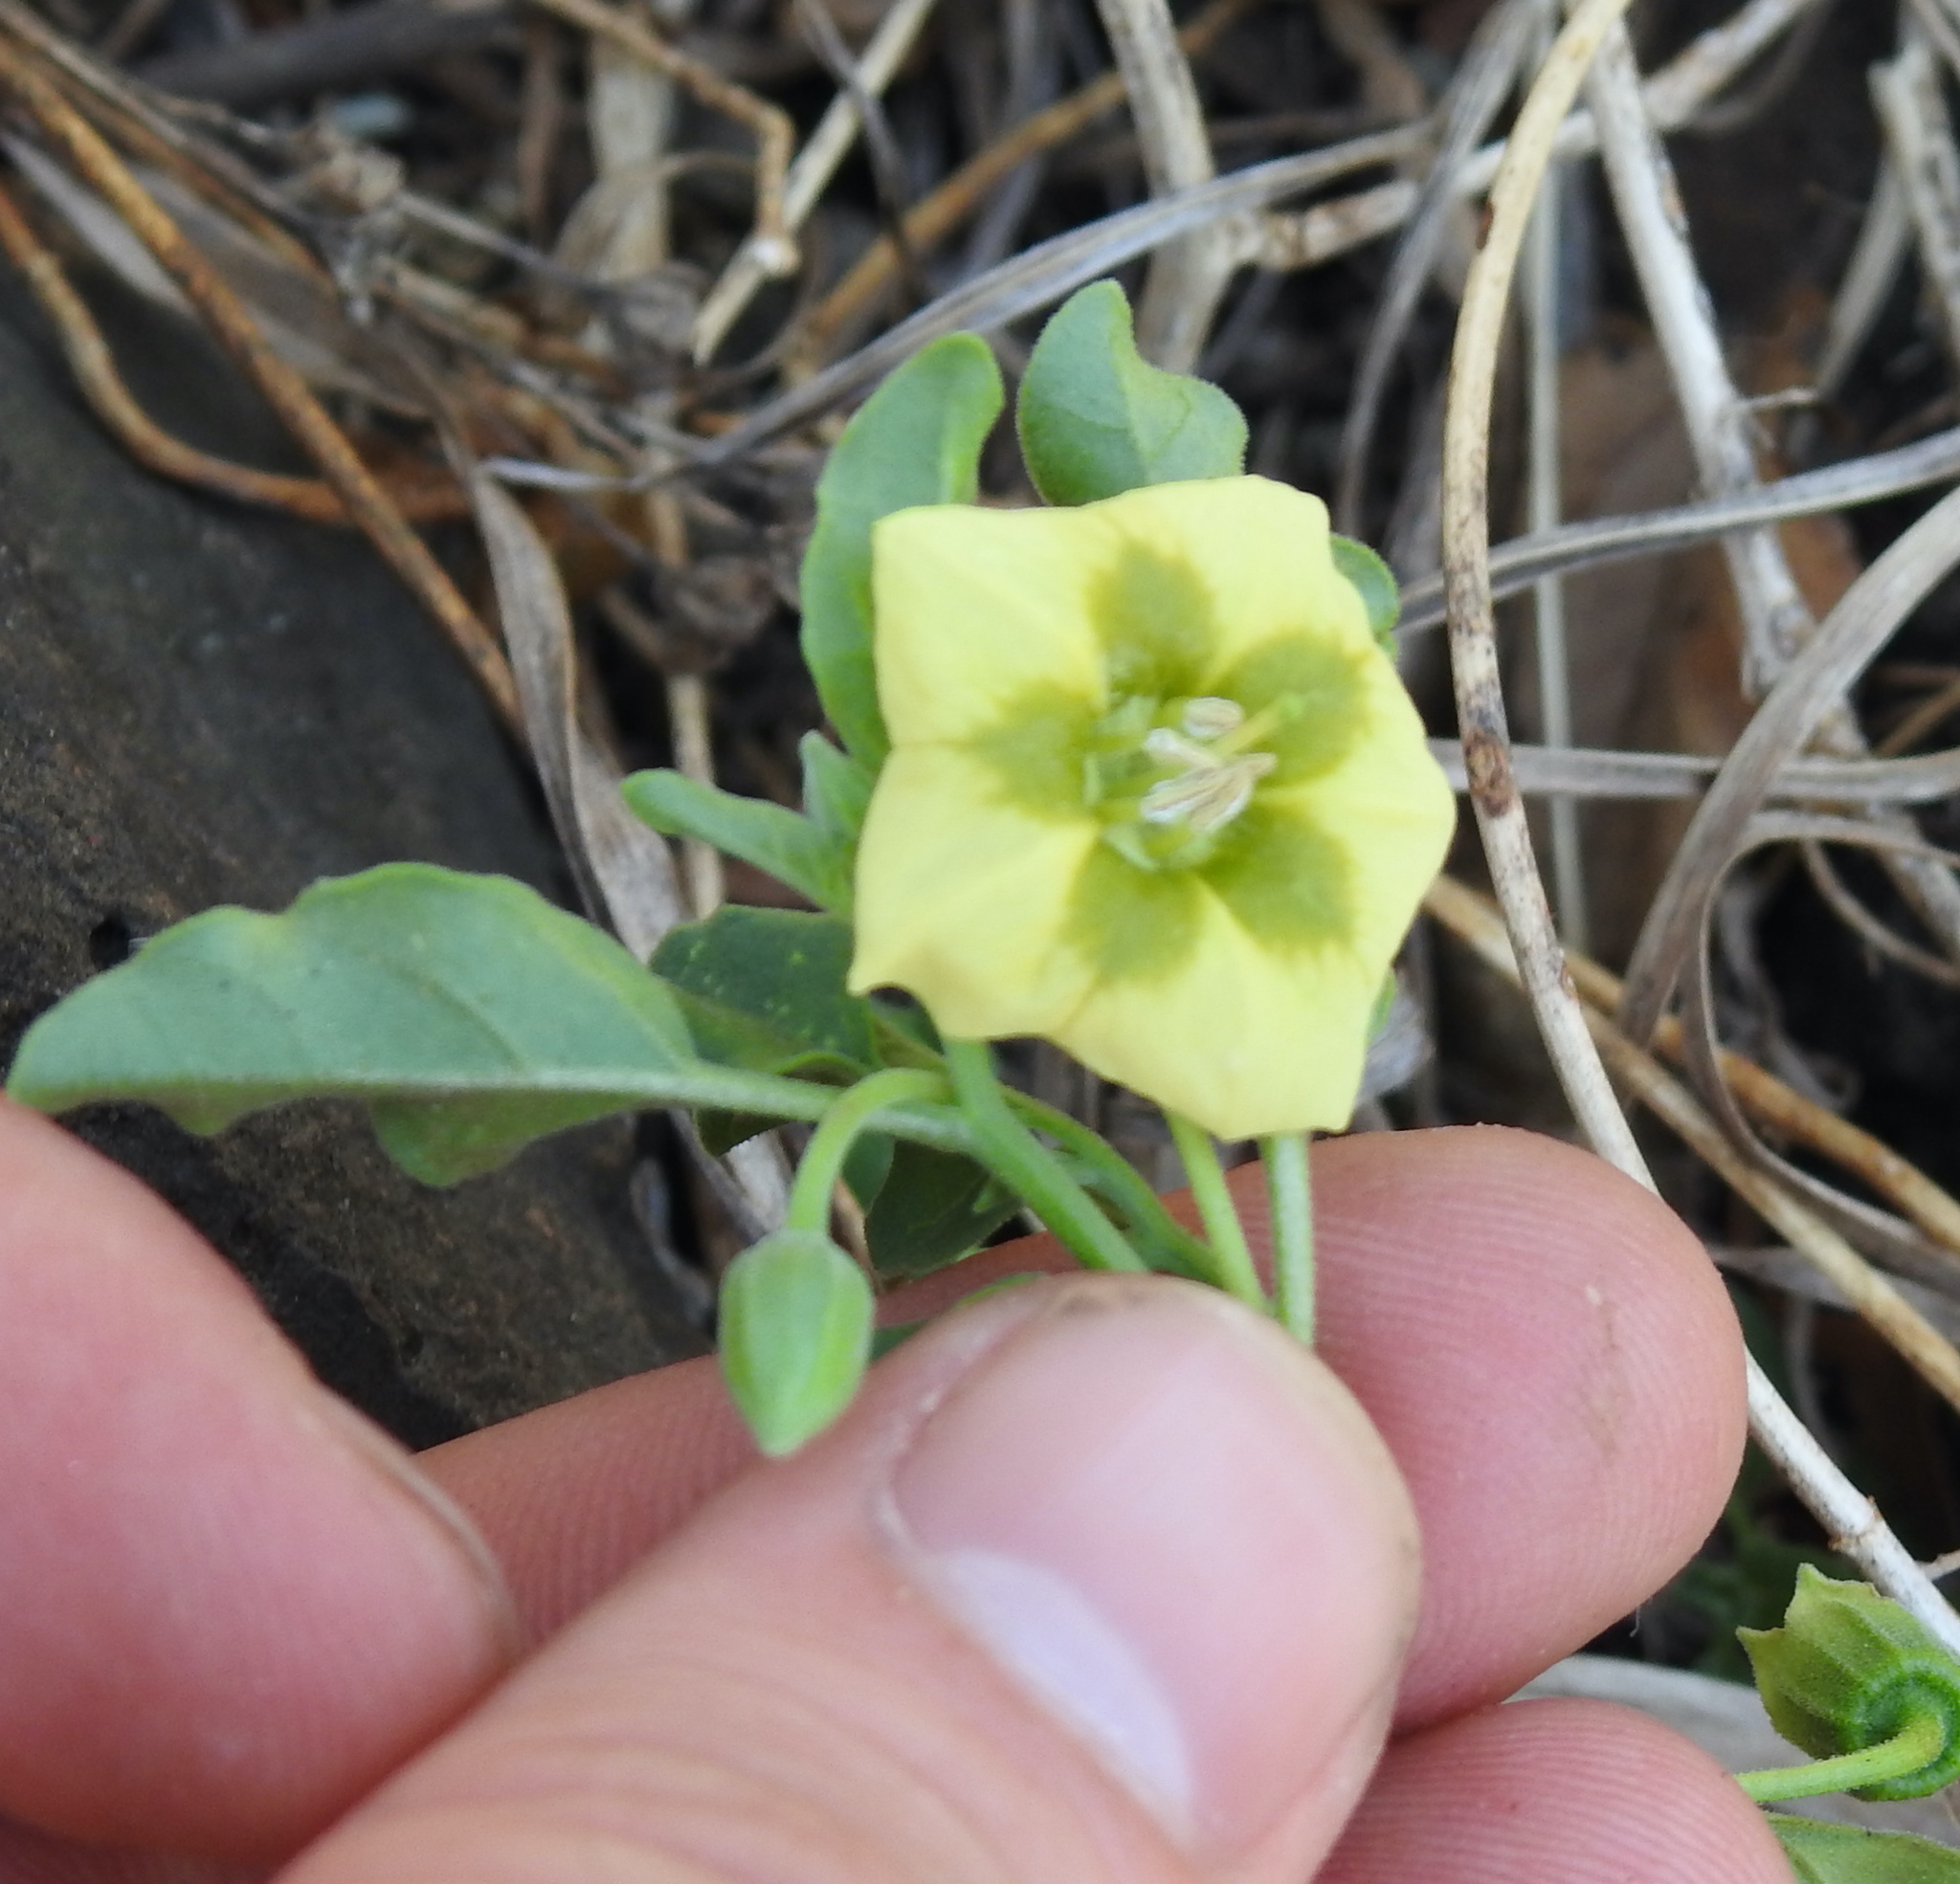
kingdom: Plantae
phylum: Tracheophyta
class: Magnoliopsida
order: Solanales
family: Solanaceae
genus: Physalis
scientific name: Physalis viscosa
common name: Stellate ground-cherry
